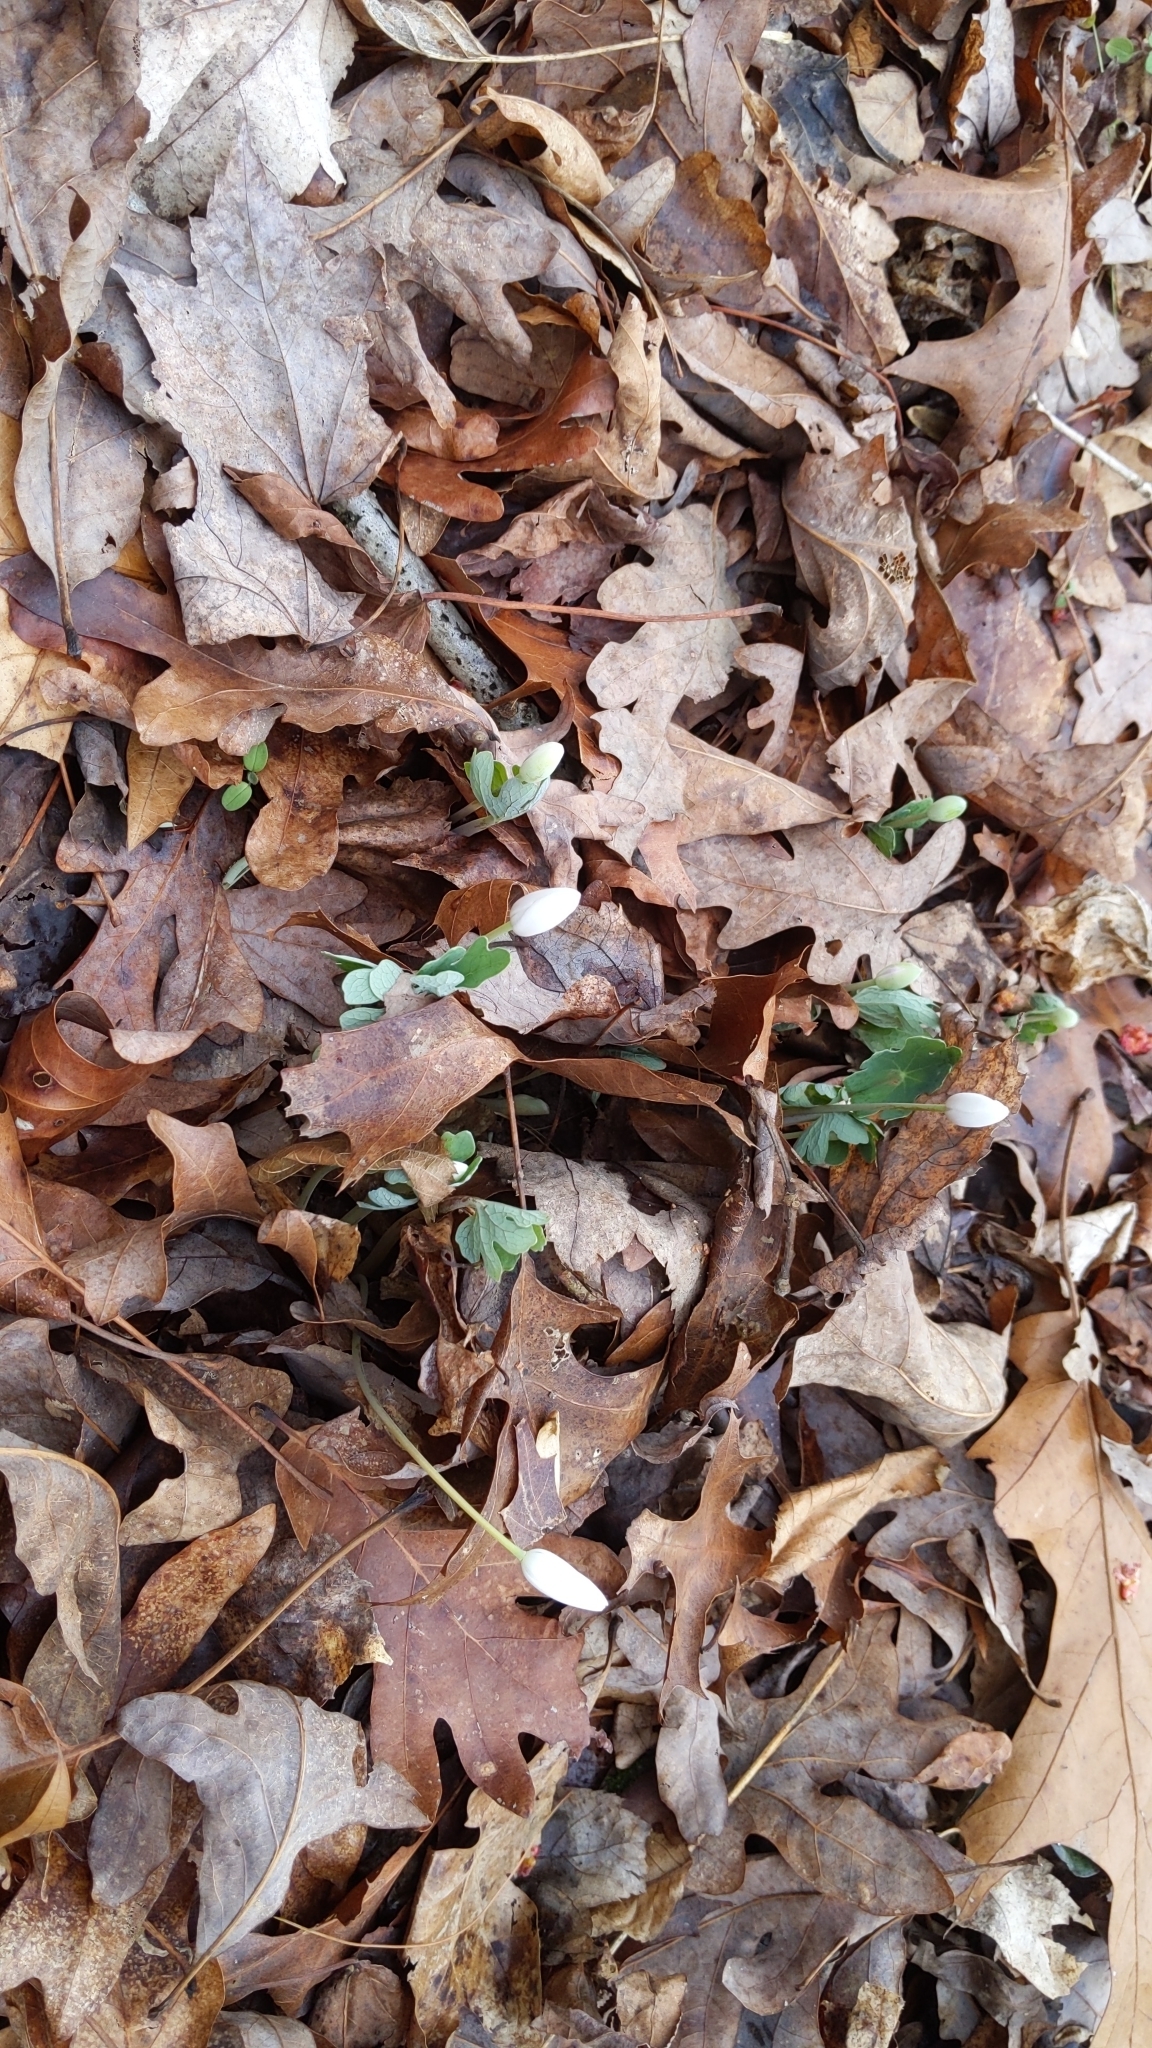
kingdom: Plantae
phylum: Tracheophyta
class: Magnoliopsida
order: Ranunculales
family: Papaveraceae
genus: Sanguinaria
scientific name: Sanguinaria canadensis
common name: Bloodroot
